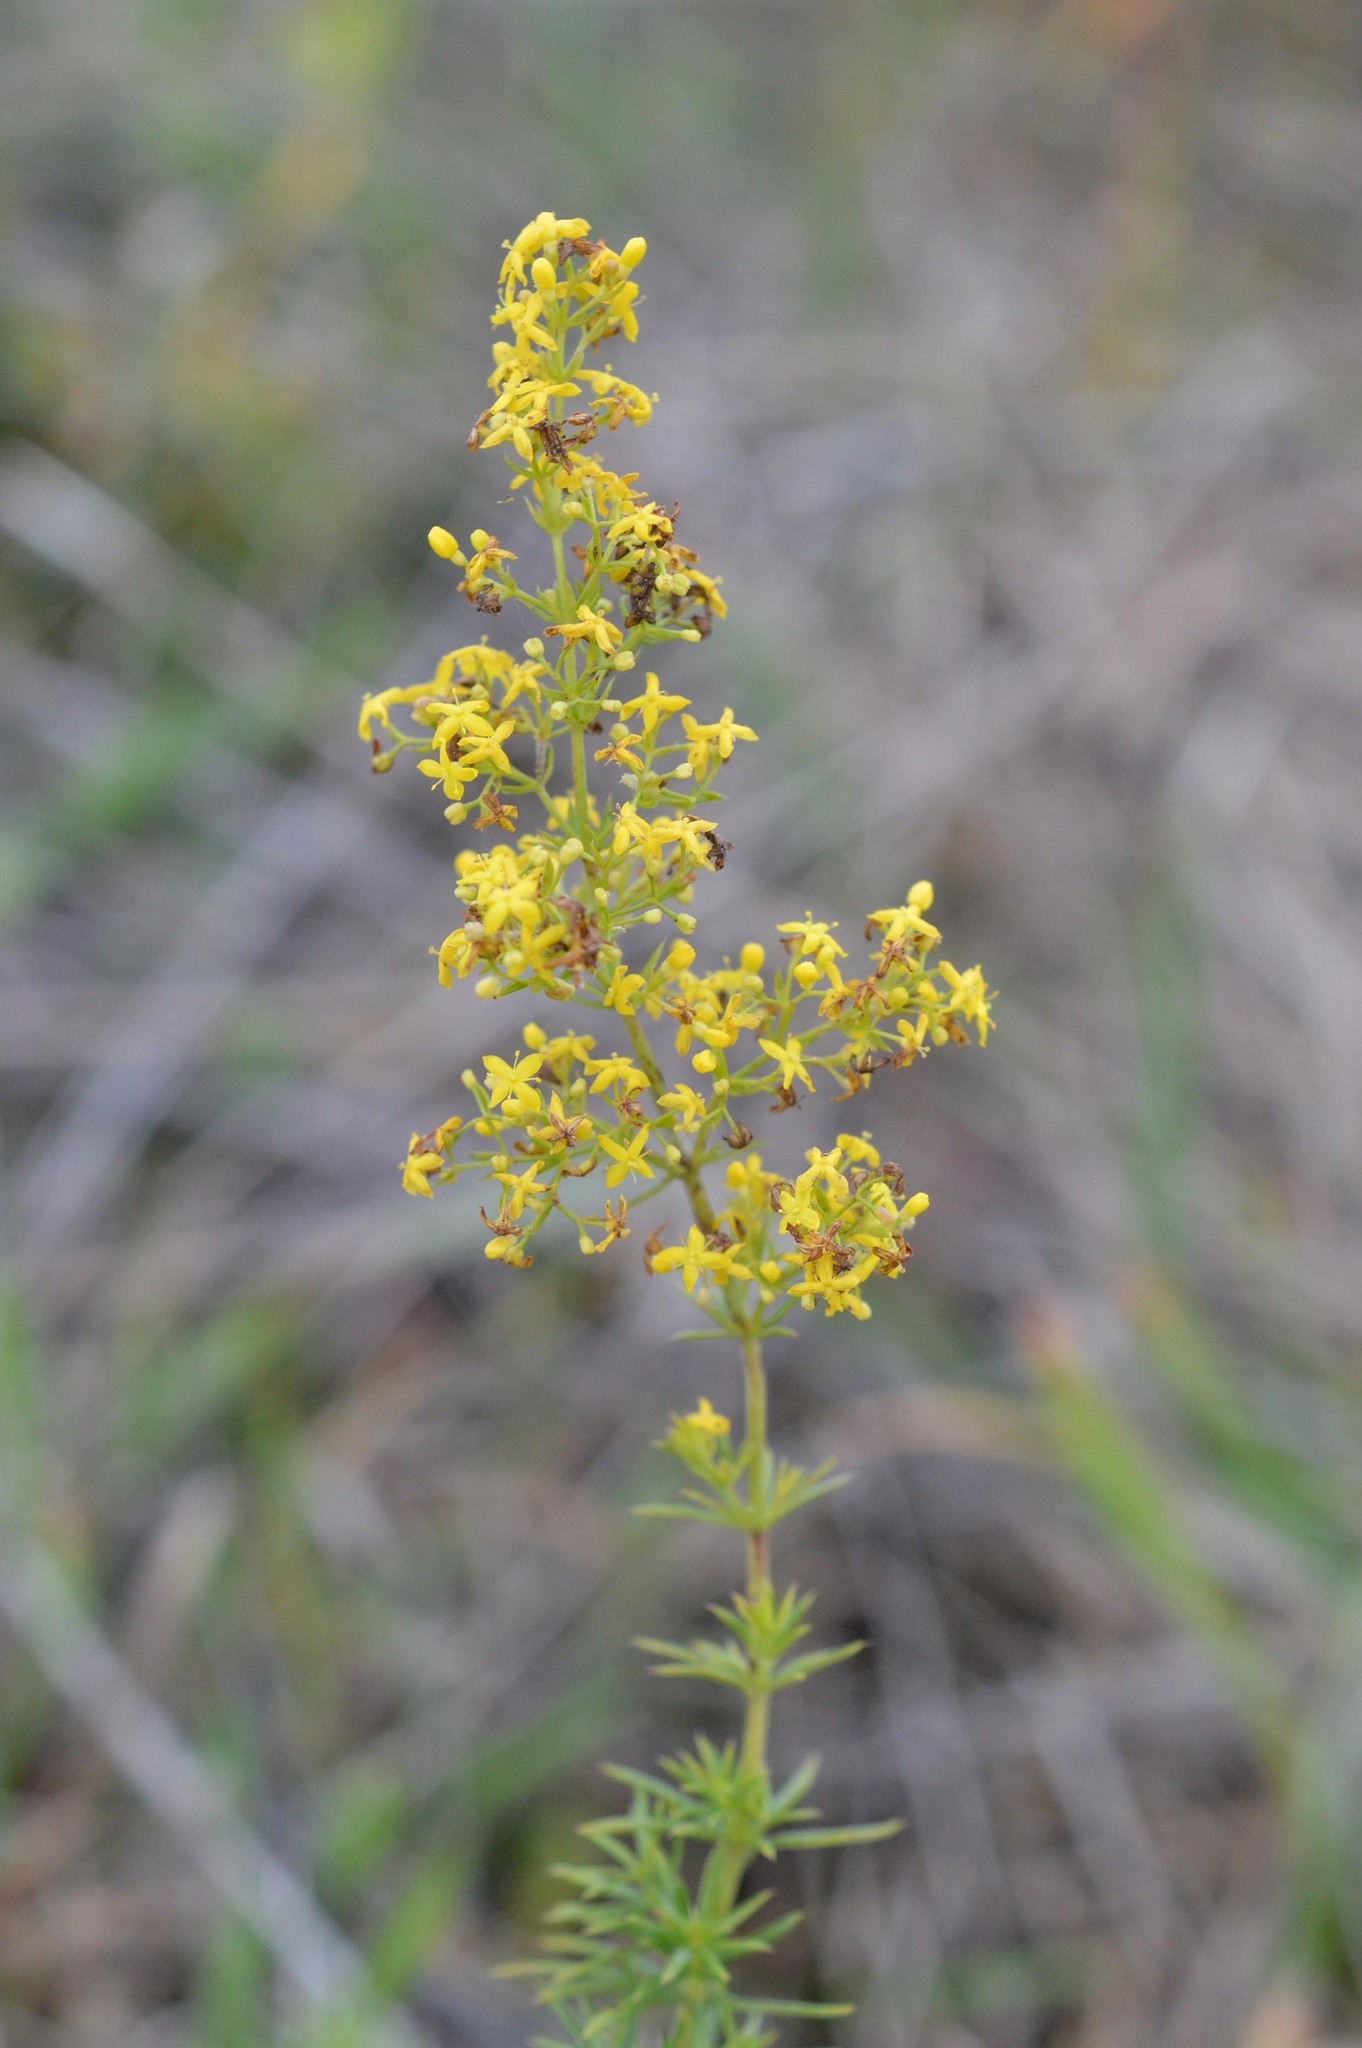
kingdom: Plantae
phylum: Tracheophyta
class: Magnoliopsida
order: Gentianales
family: Rubiaceae
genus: Galium
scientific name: Galium verum
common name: Lady's bedstraw
